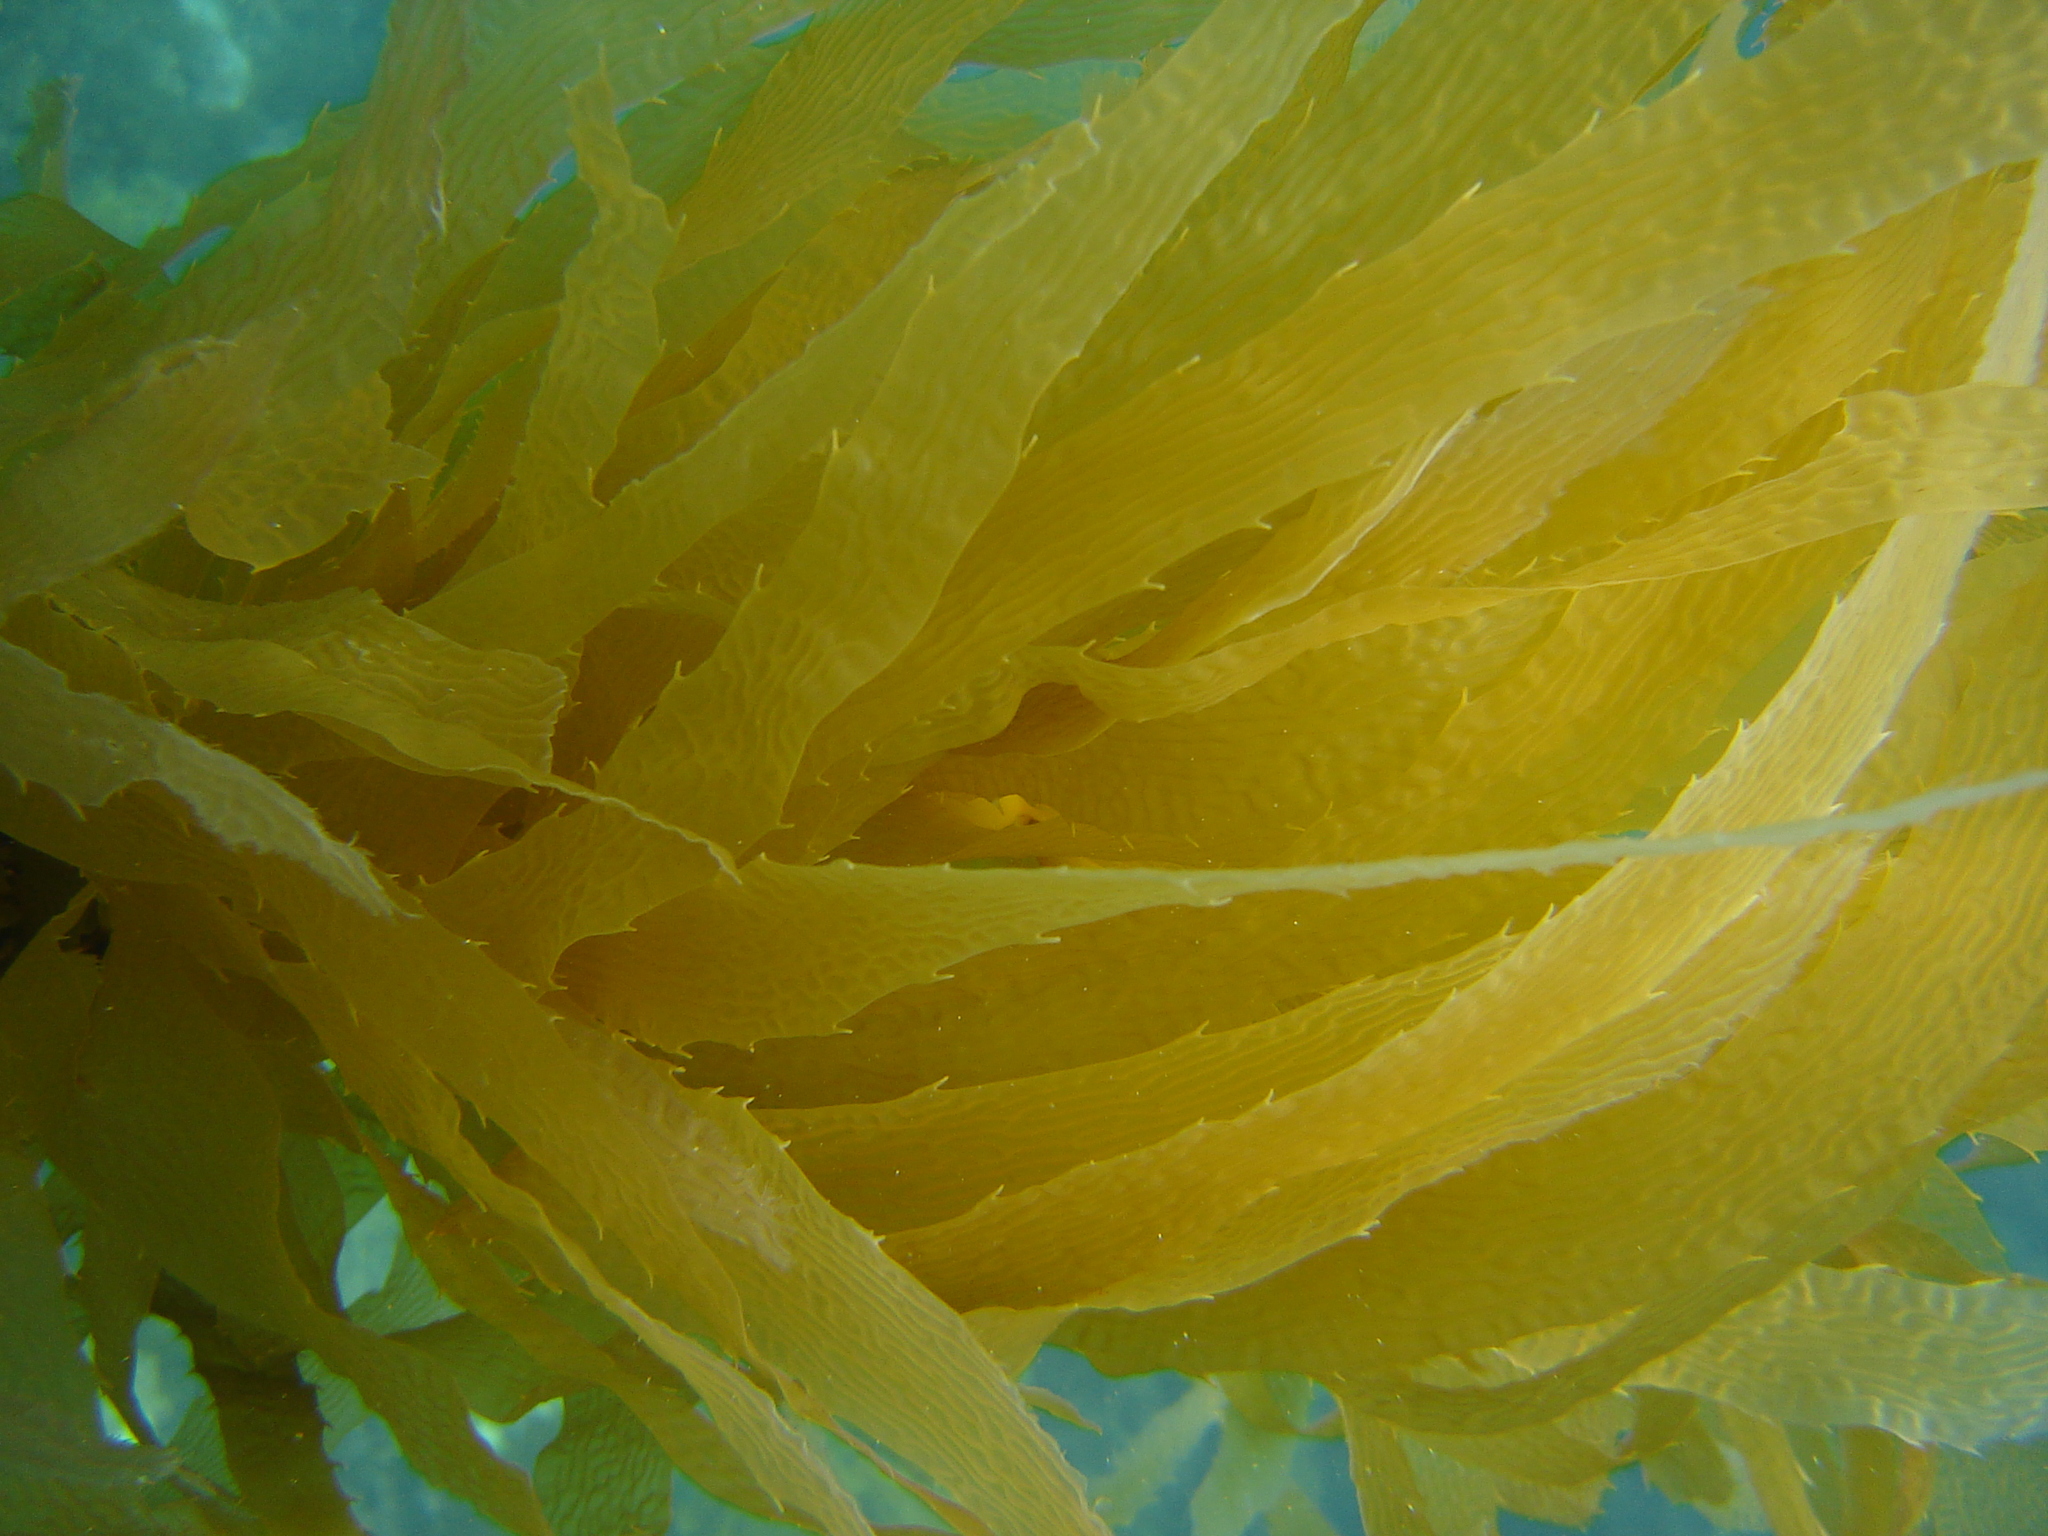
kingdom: Chromista
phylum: Ochrophyta
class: Phaeophyceae
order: Laminariales
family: Laminariaceae
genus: Macrocystis
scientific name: Macrocystis pyrifera
